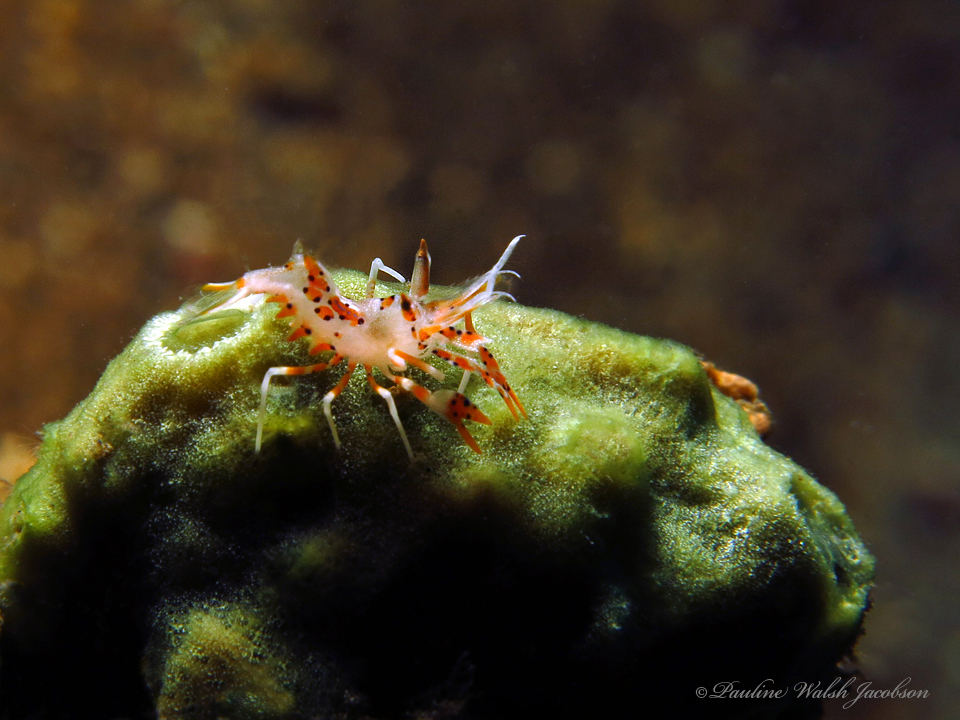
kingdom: Animalia
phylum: Arthropoda
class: Malacostraca
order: Decapoda
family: Palaemonidae
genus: Phyllognathia
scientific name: Phyllognathia ceratophthalma
